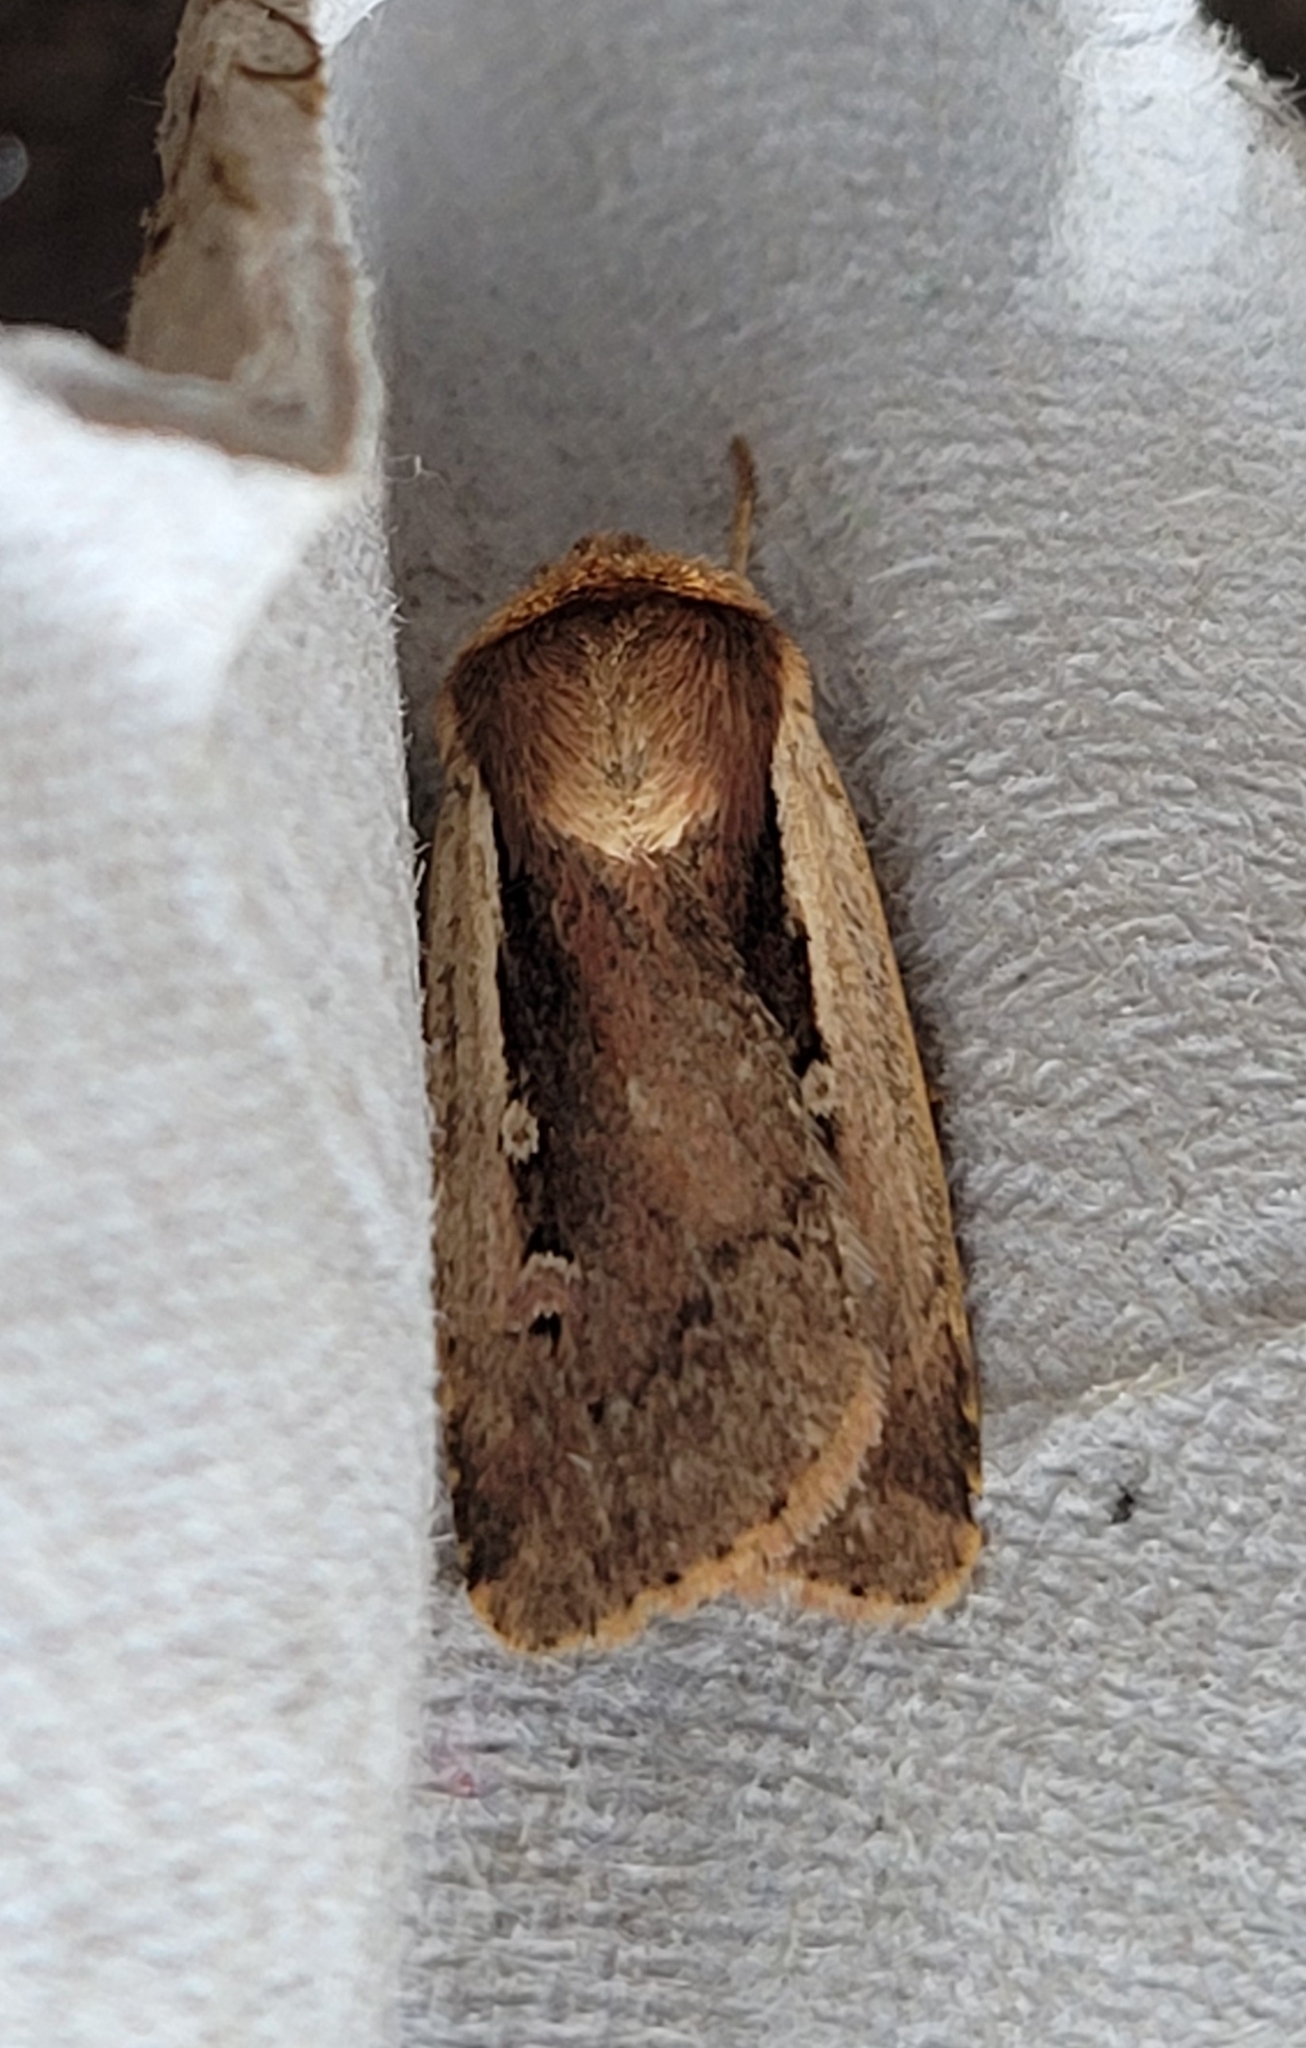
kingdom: Animalia
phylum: Arthropoda
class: Insecta
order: Lepidoptera
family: Noctuidae
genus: Ochropleura
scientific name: Ochropleura plecta
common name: Flame shoulder
